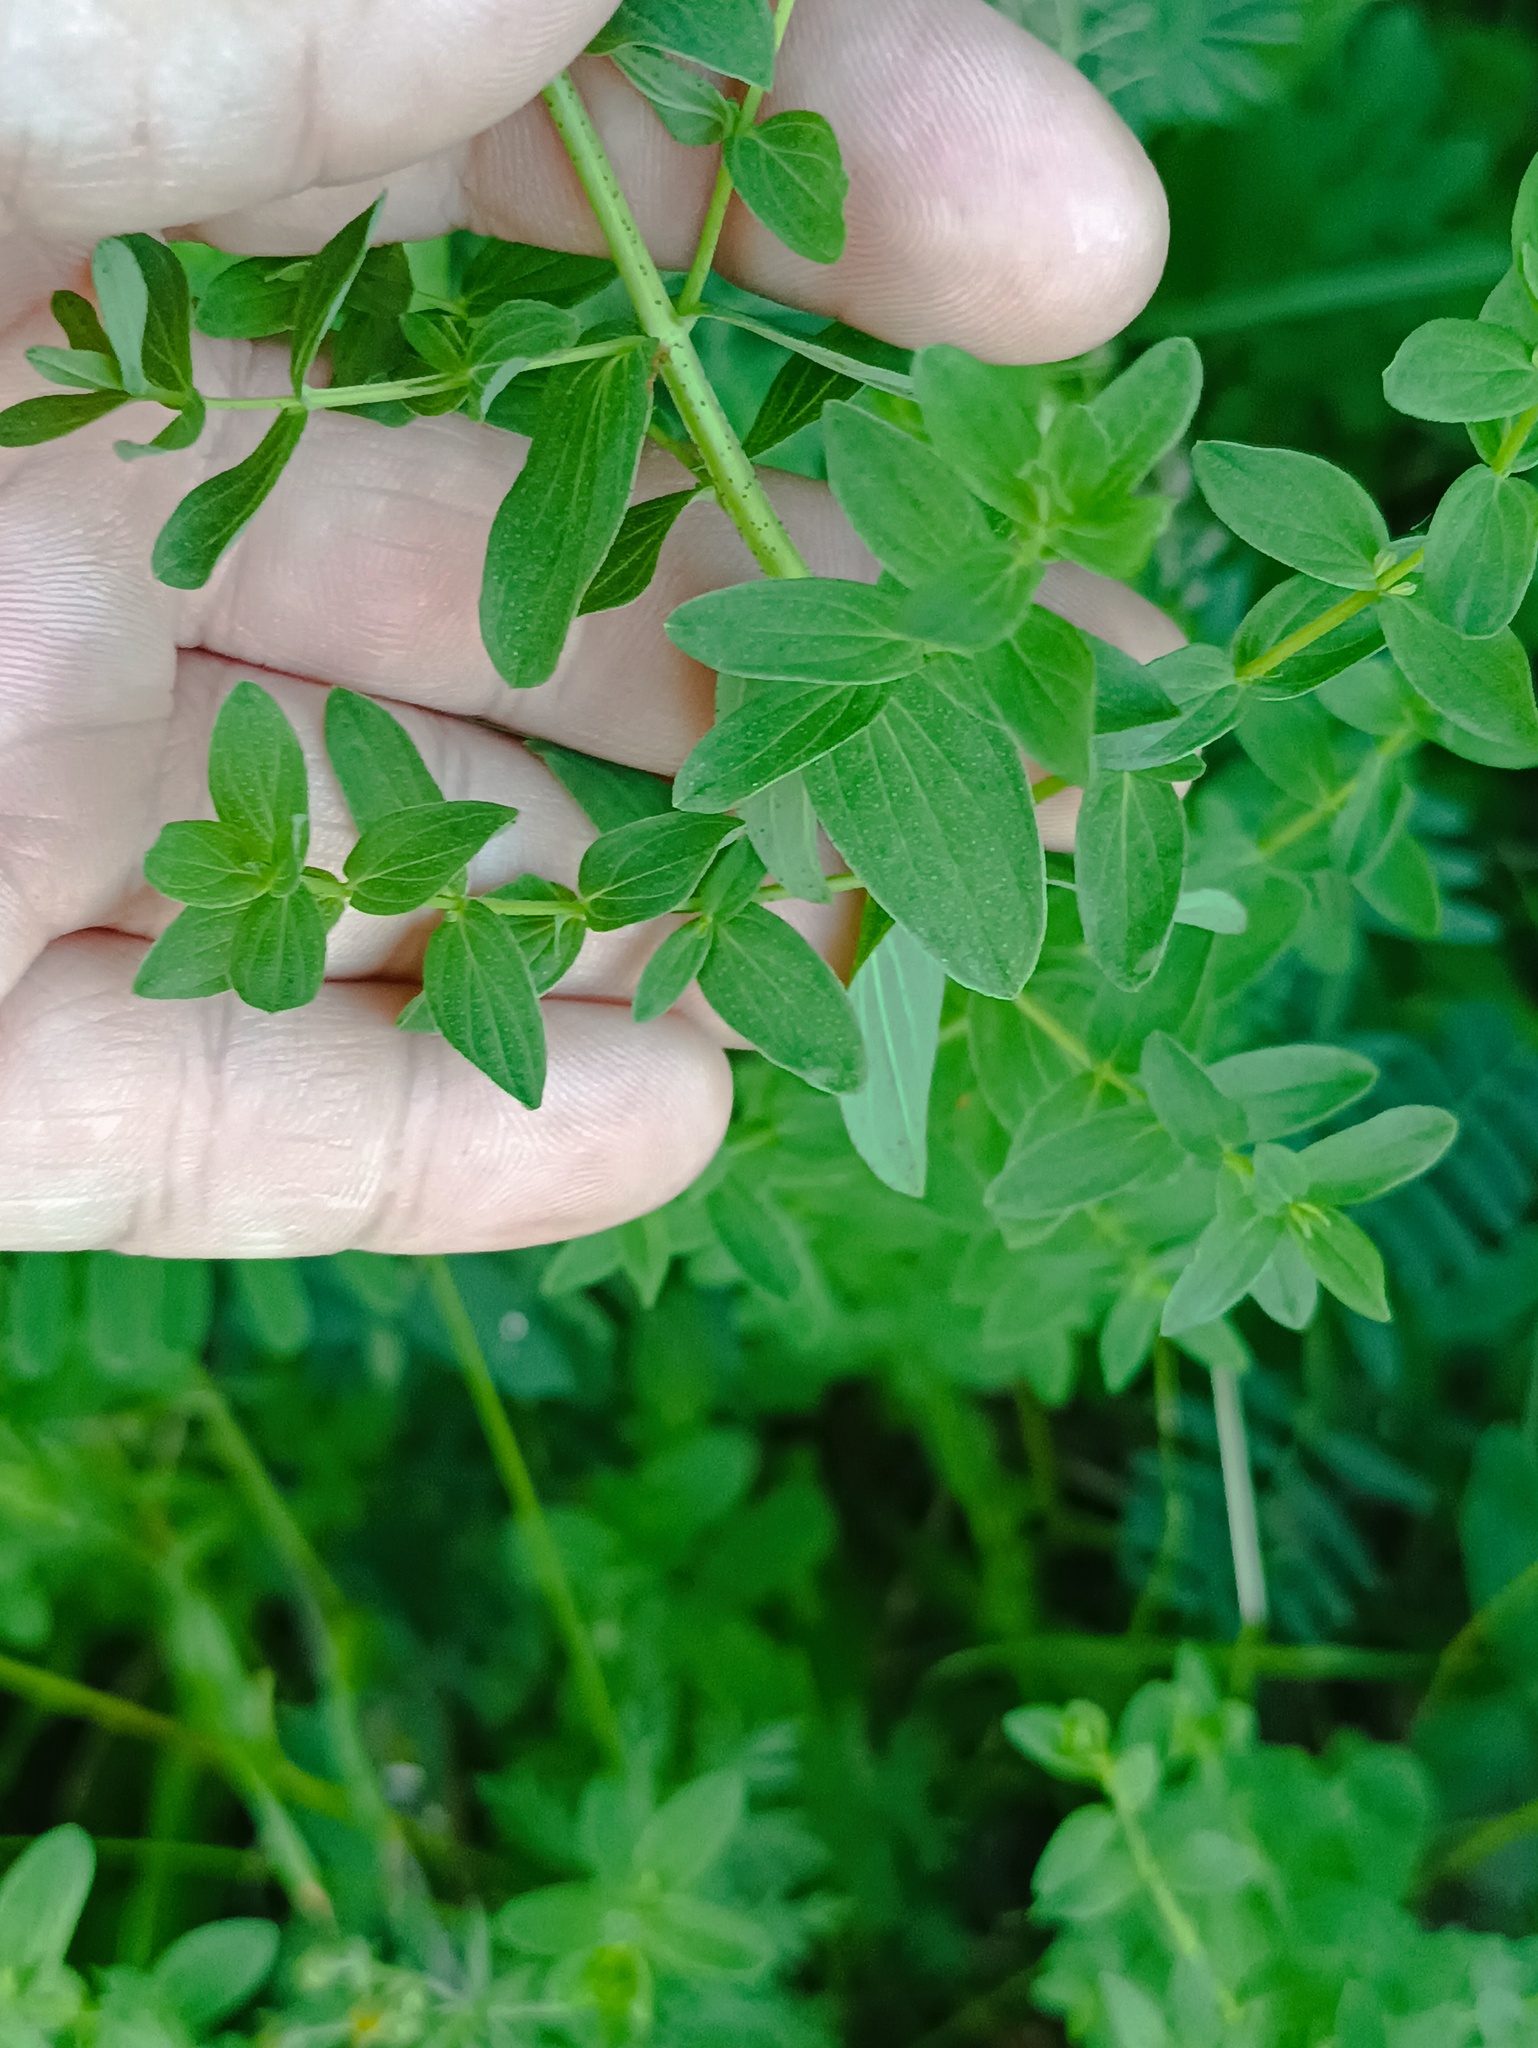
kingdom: Plantae
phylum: Tracheophyta
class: Magnoliopsida
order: Malpighiales
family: Hypericaceae
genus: Hypericum
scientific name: Hypericum perforatum
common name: Common st. johnswort
